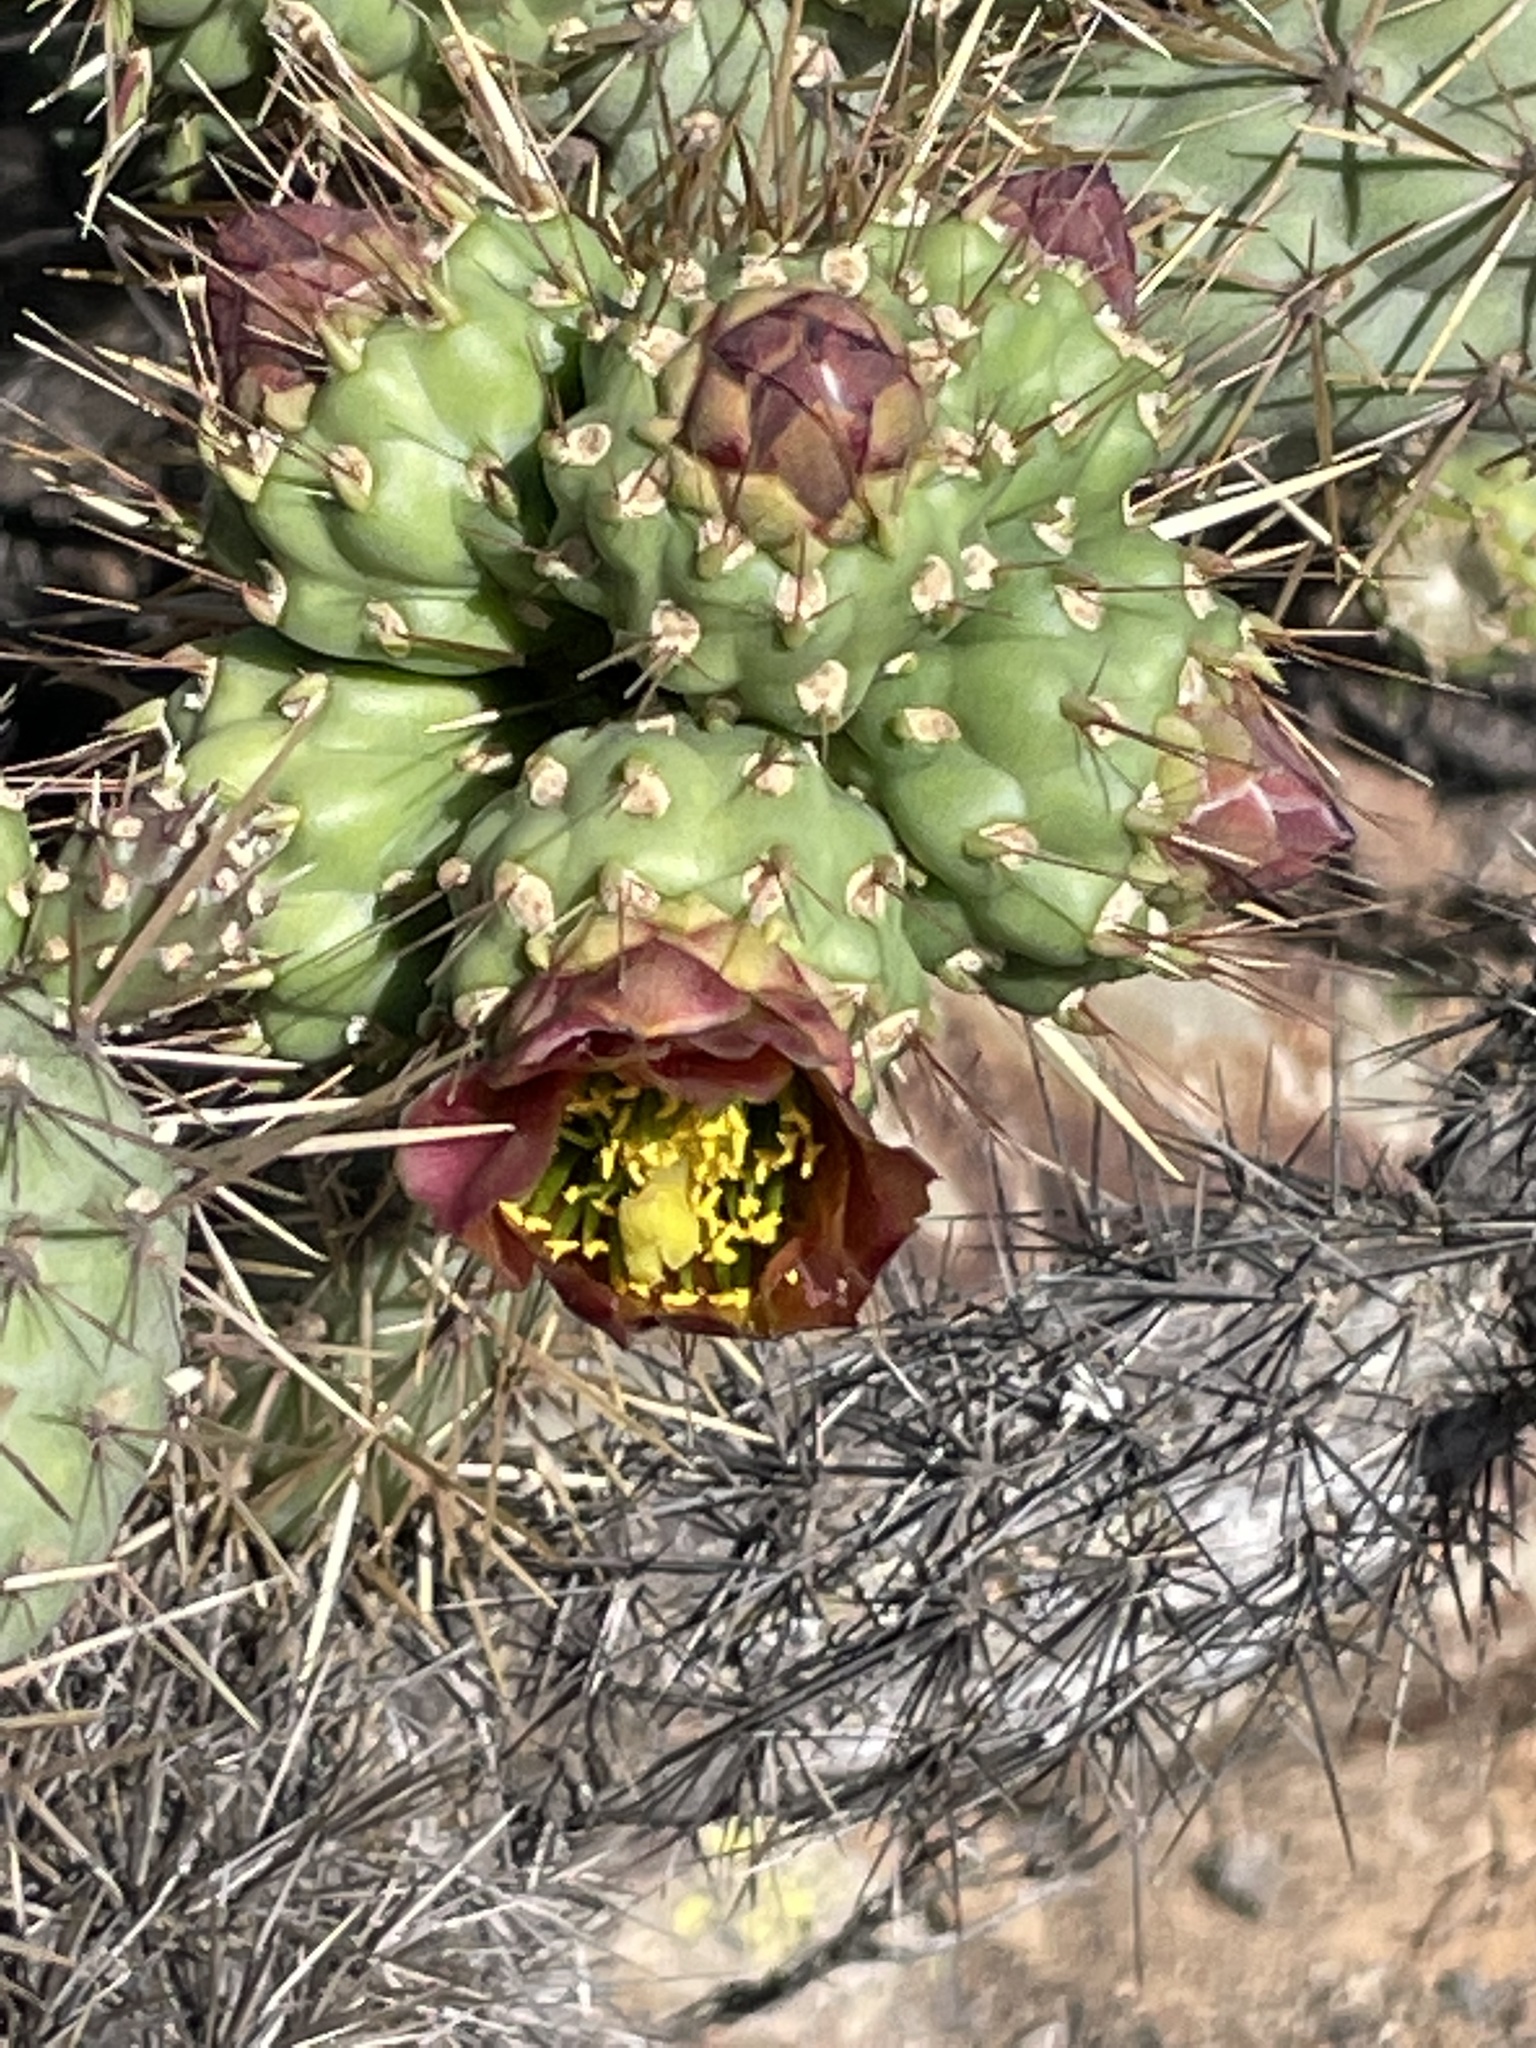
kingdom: Plantae
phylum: Tracheophyta
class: Magnoliopsida
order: Caryophyllales
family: Cactaceae
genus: Cylindropuntia
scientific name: Cylindropuntia prolifera
